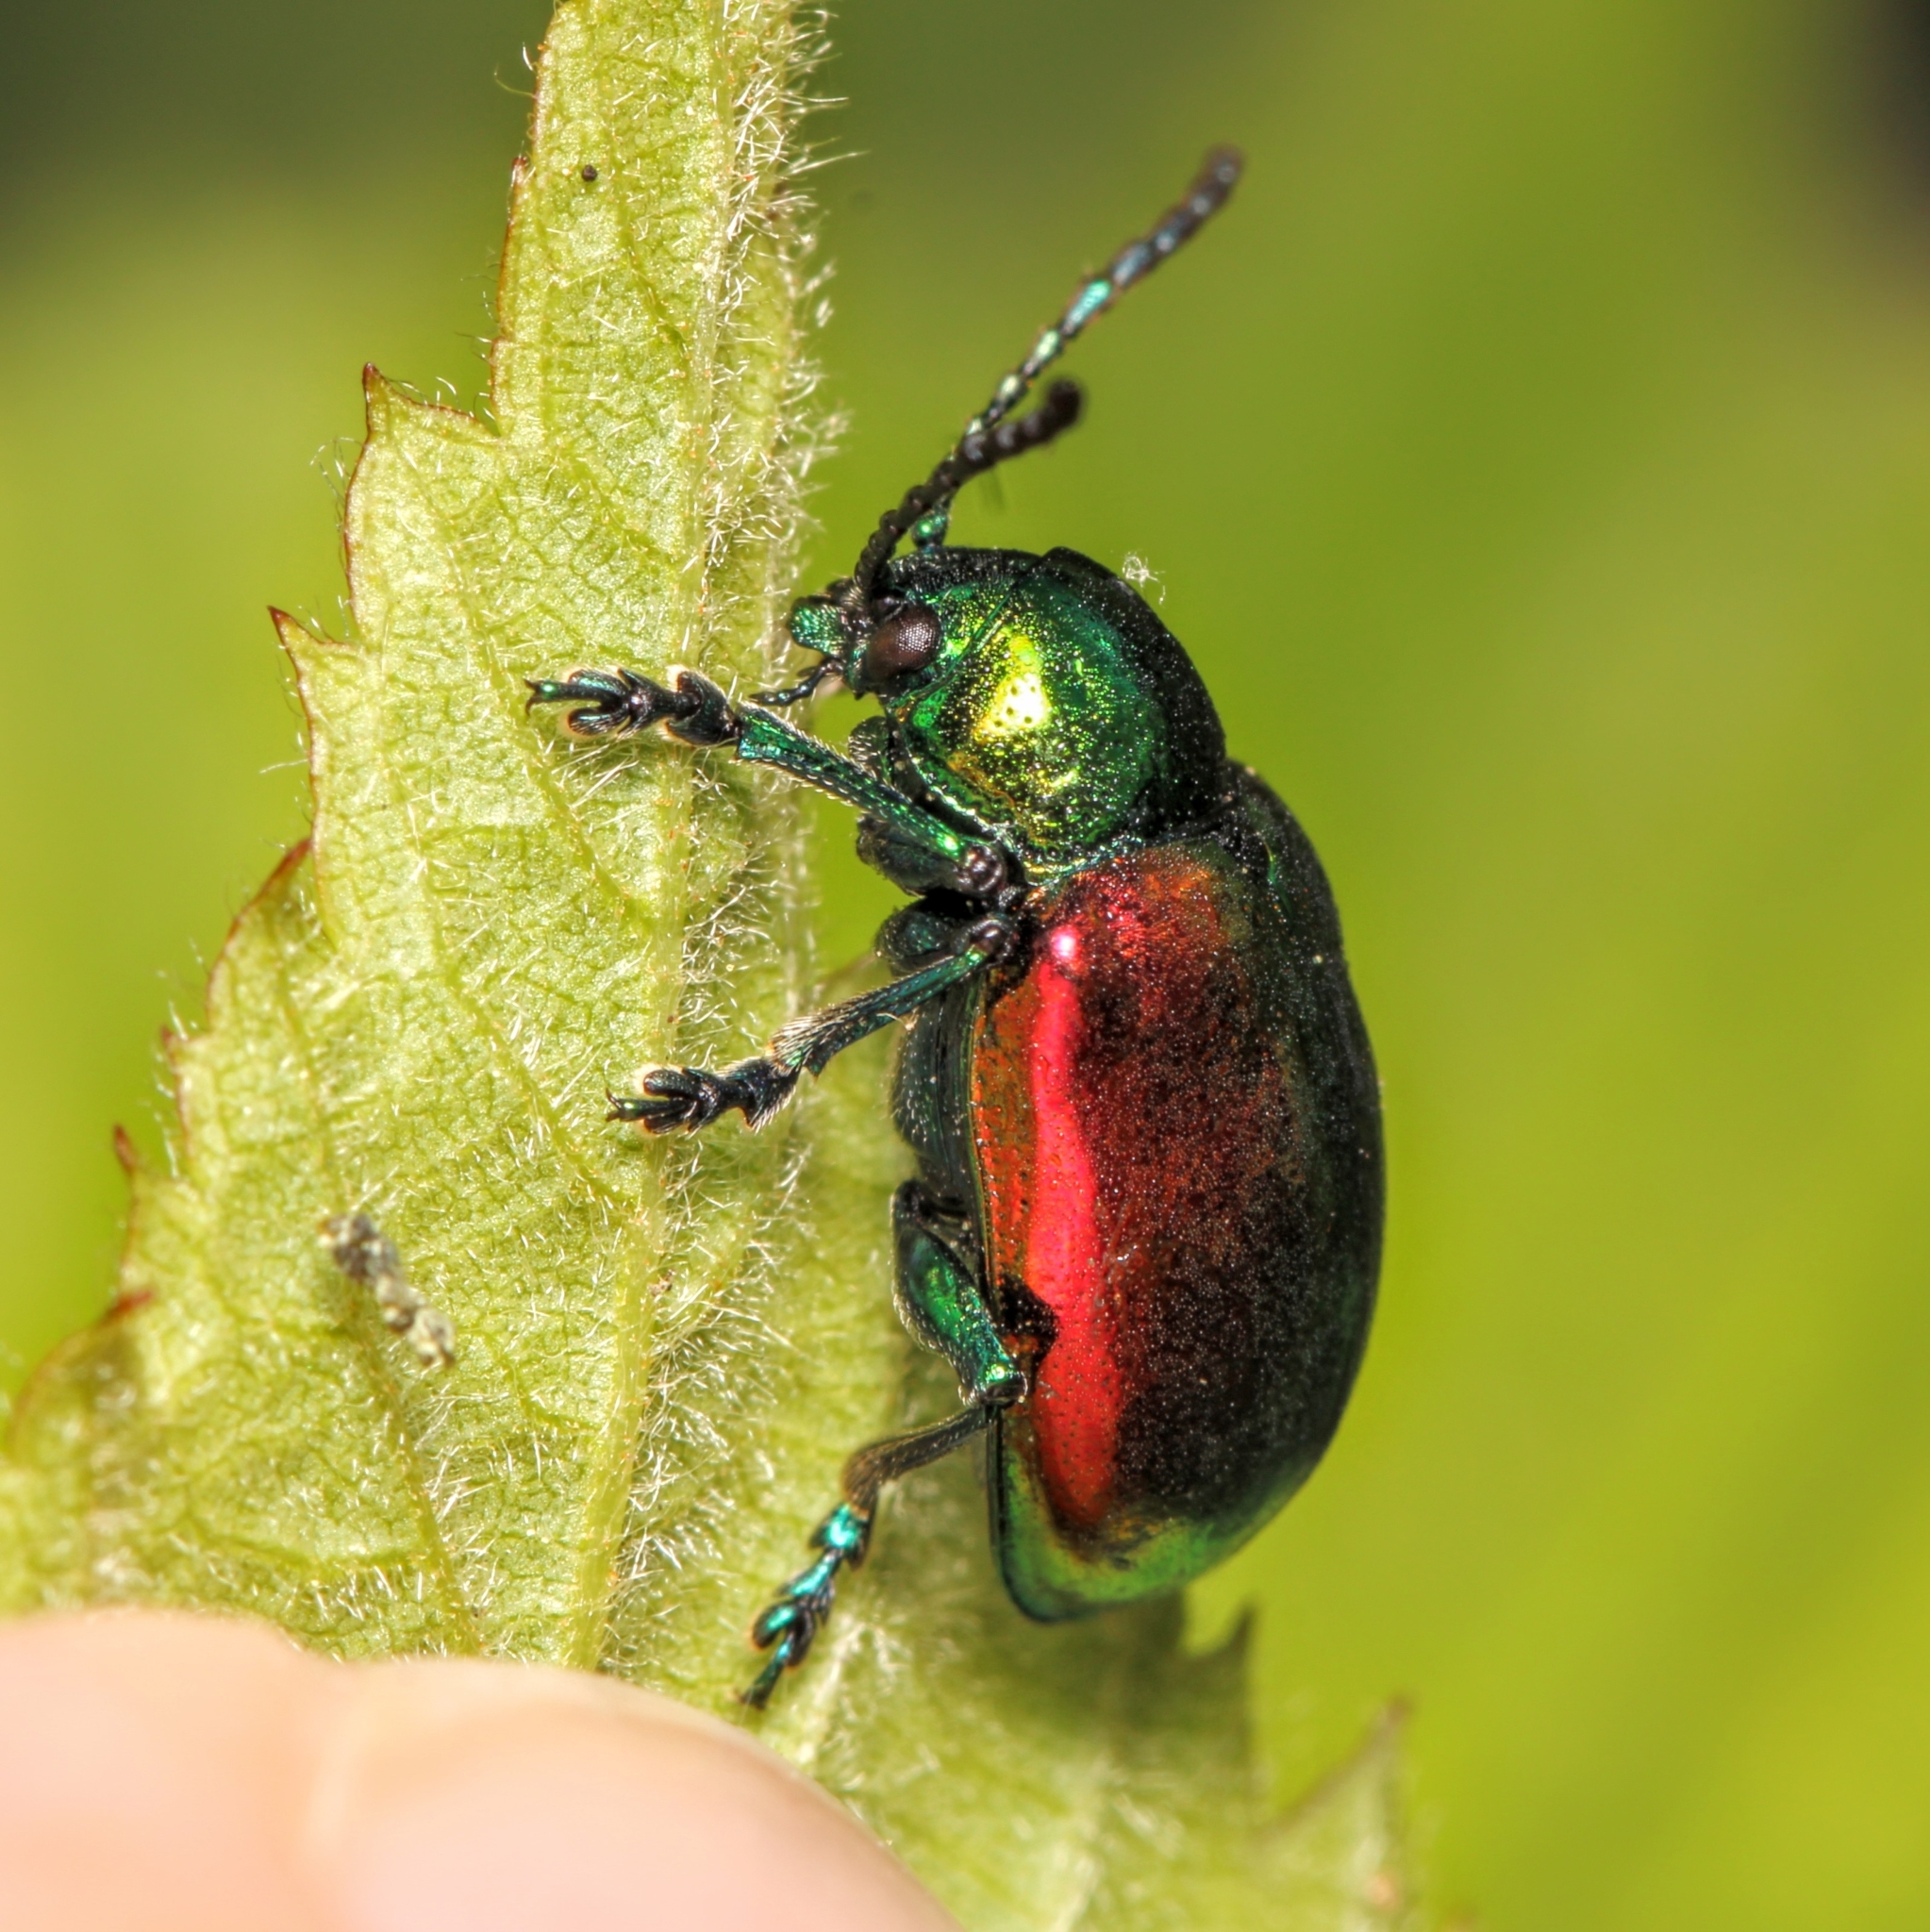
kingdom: Animalia
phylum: Arthropoda
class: Insecta
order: Coleoptera
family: Chrysomelidae
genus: Chrysochus
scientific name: Chrysochus auratus
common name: Dogbane leaf beetle
